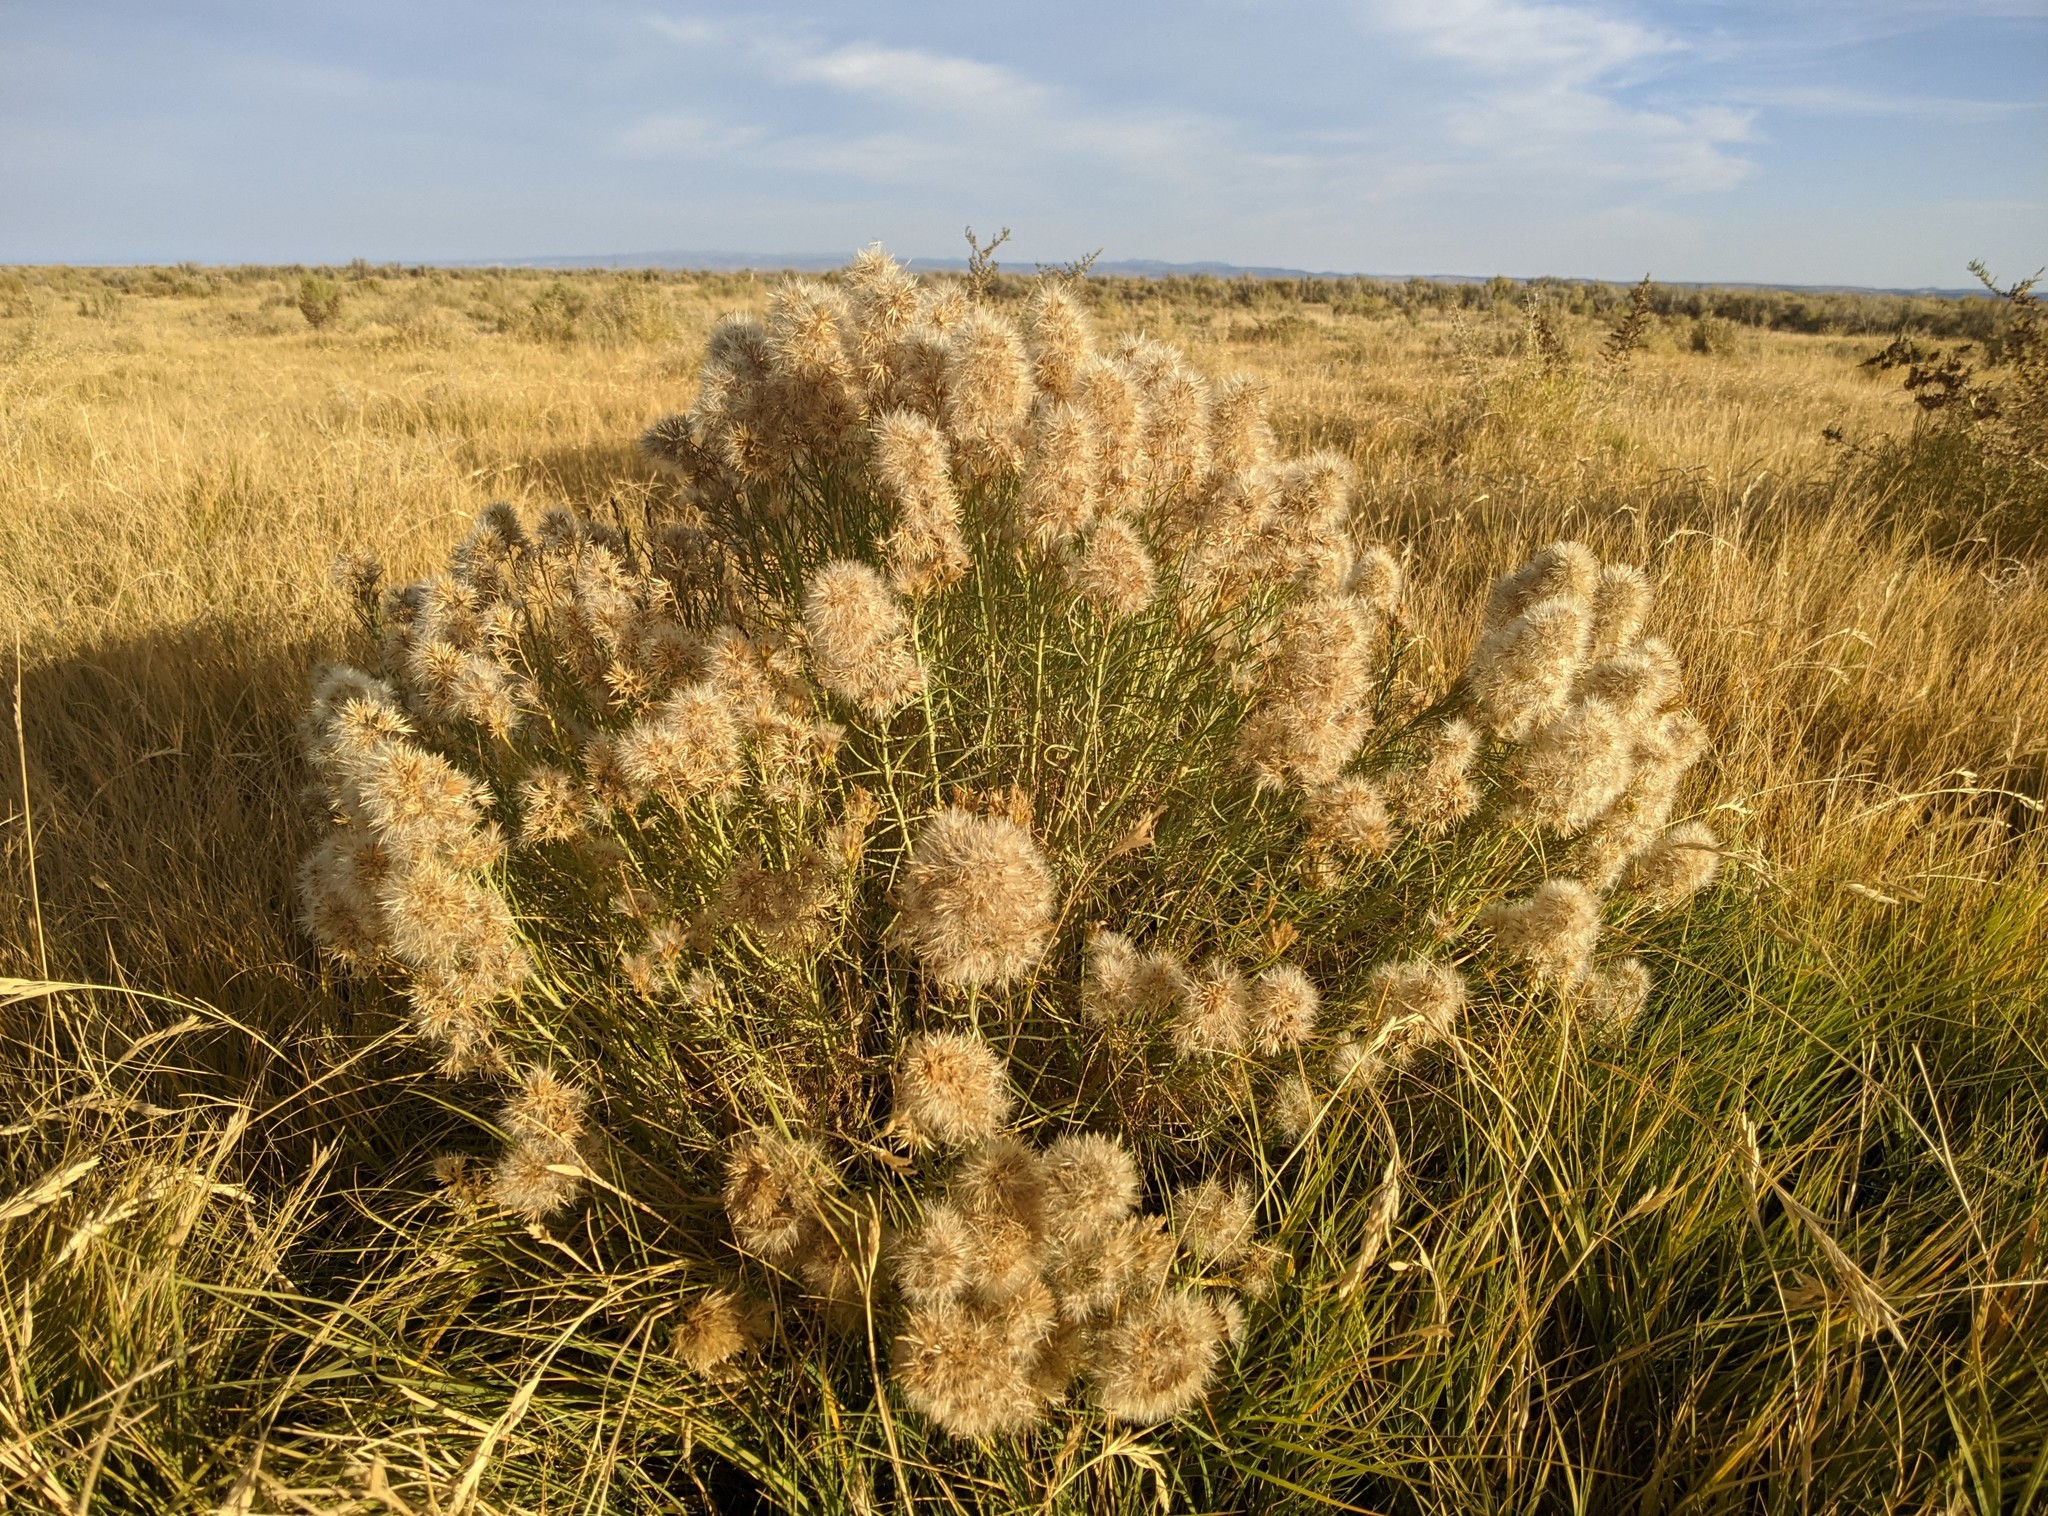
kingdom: Plantae
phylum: Tracheophyta
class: Magnoliopsida
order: Asterales
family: Asteraceae
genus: Ericameria
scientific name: Ericameria nauseosa
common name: Rubber rabbitbrush
